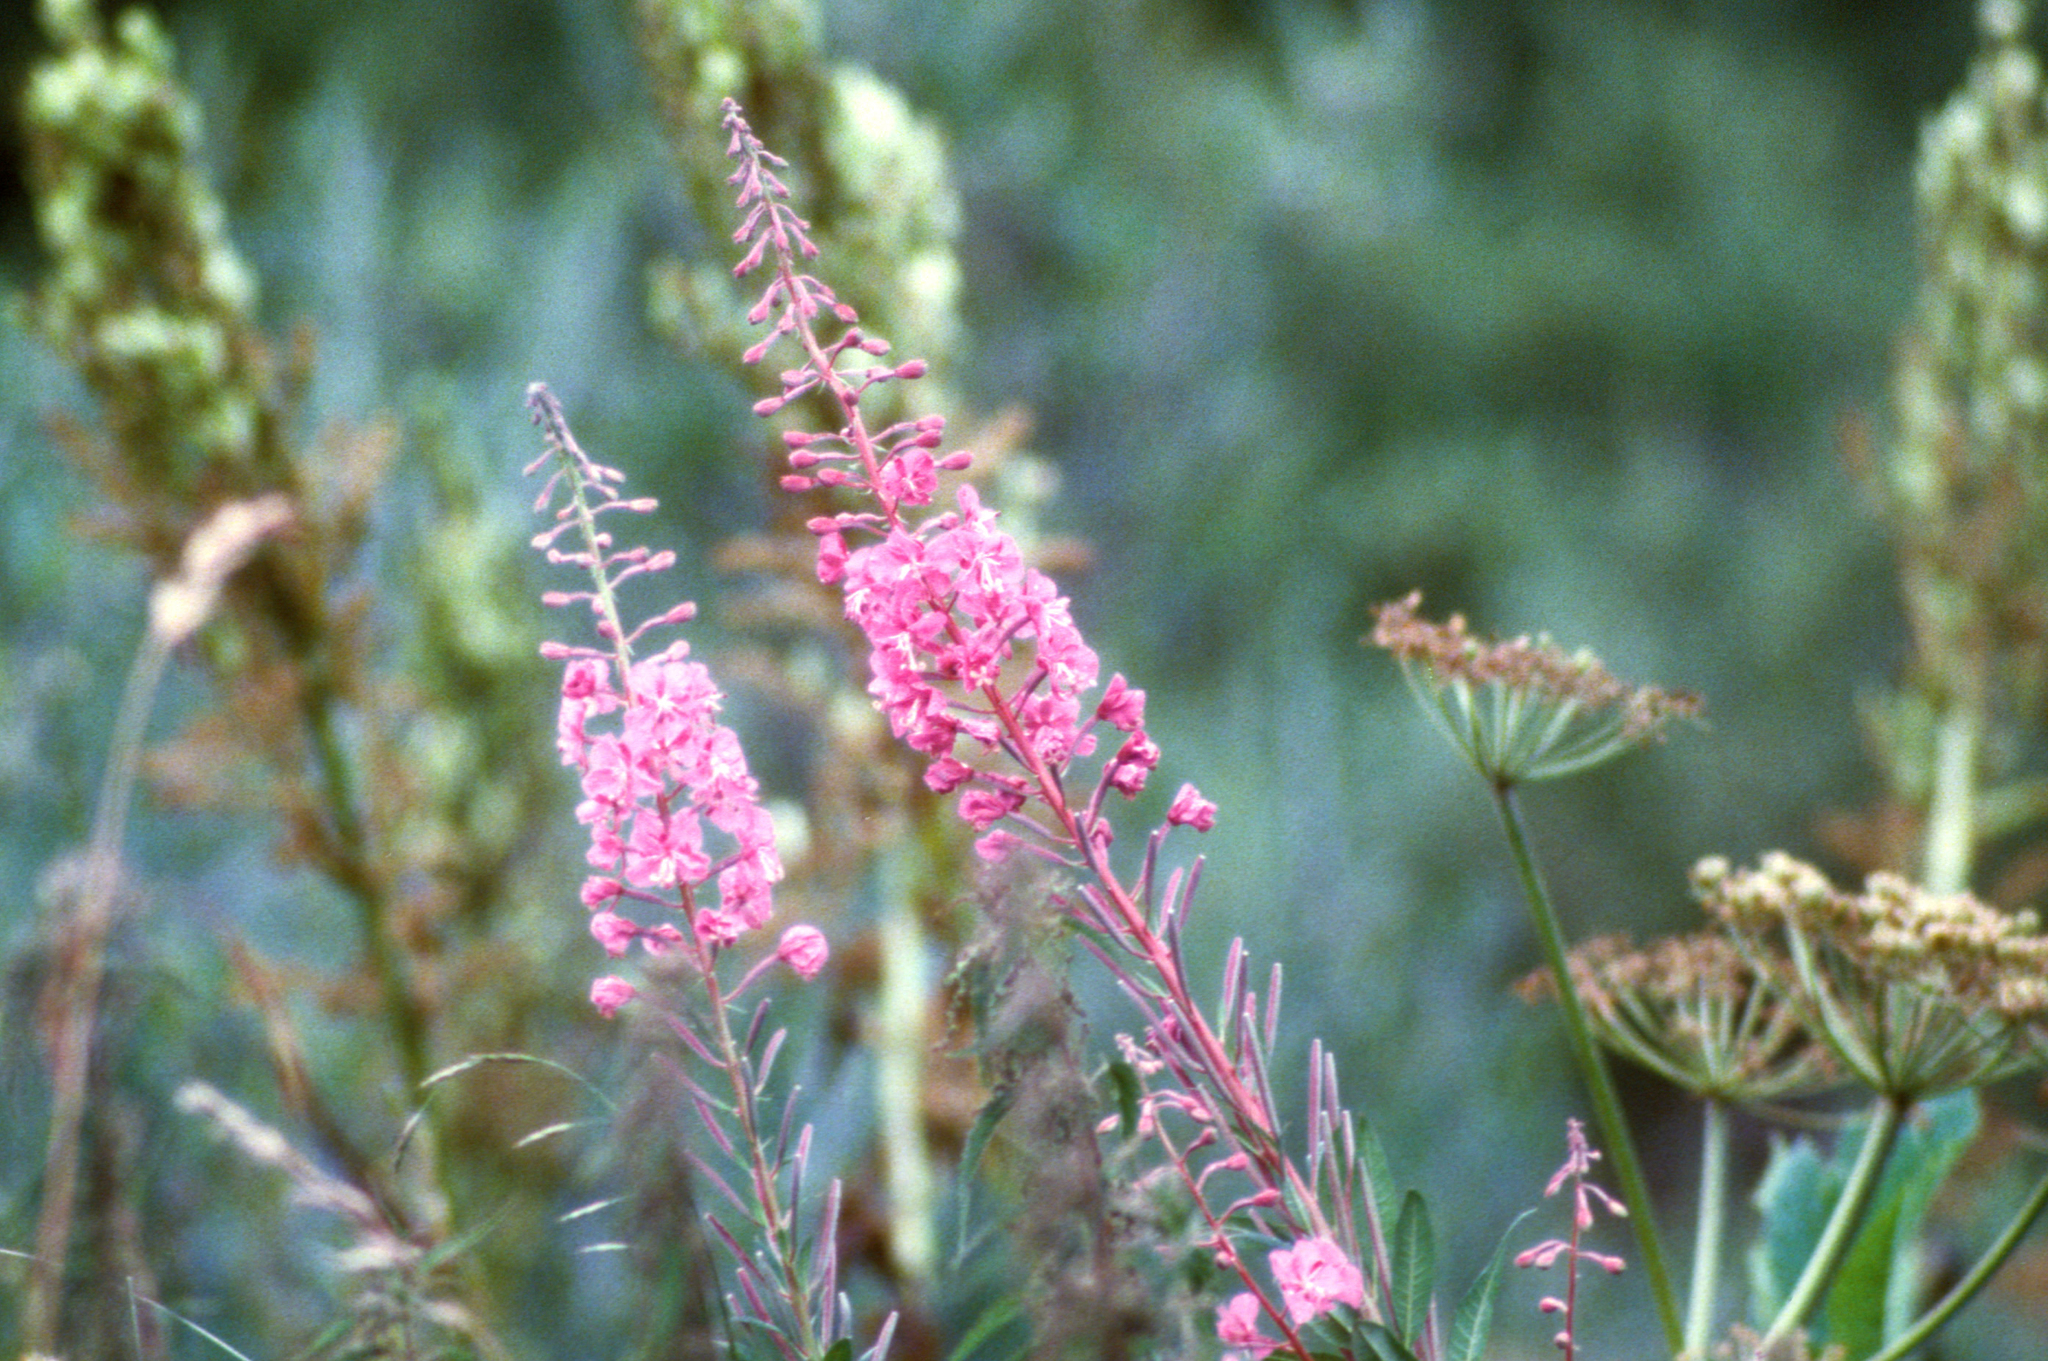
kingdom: Plantae
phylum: Tracheophyta
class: Magnoliopsida
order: Myrtales
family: Onagraceae
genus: Chamaenerion
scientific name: Chamaenerion angustifolium
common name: Fireweed
